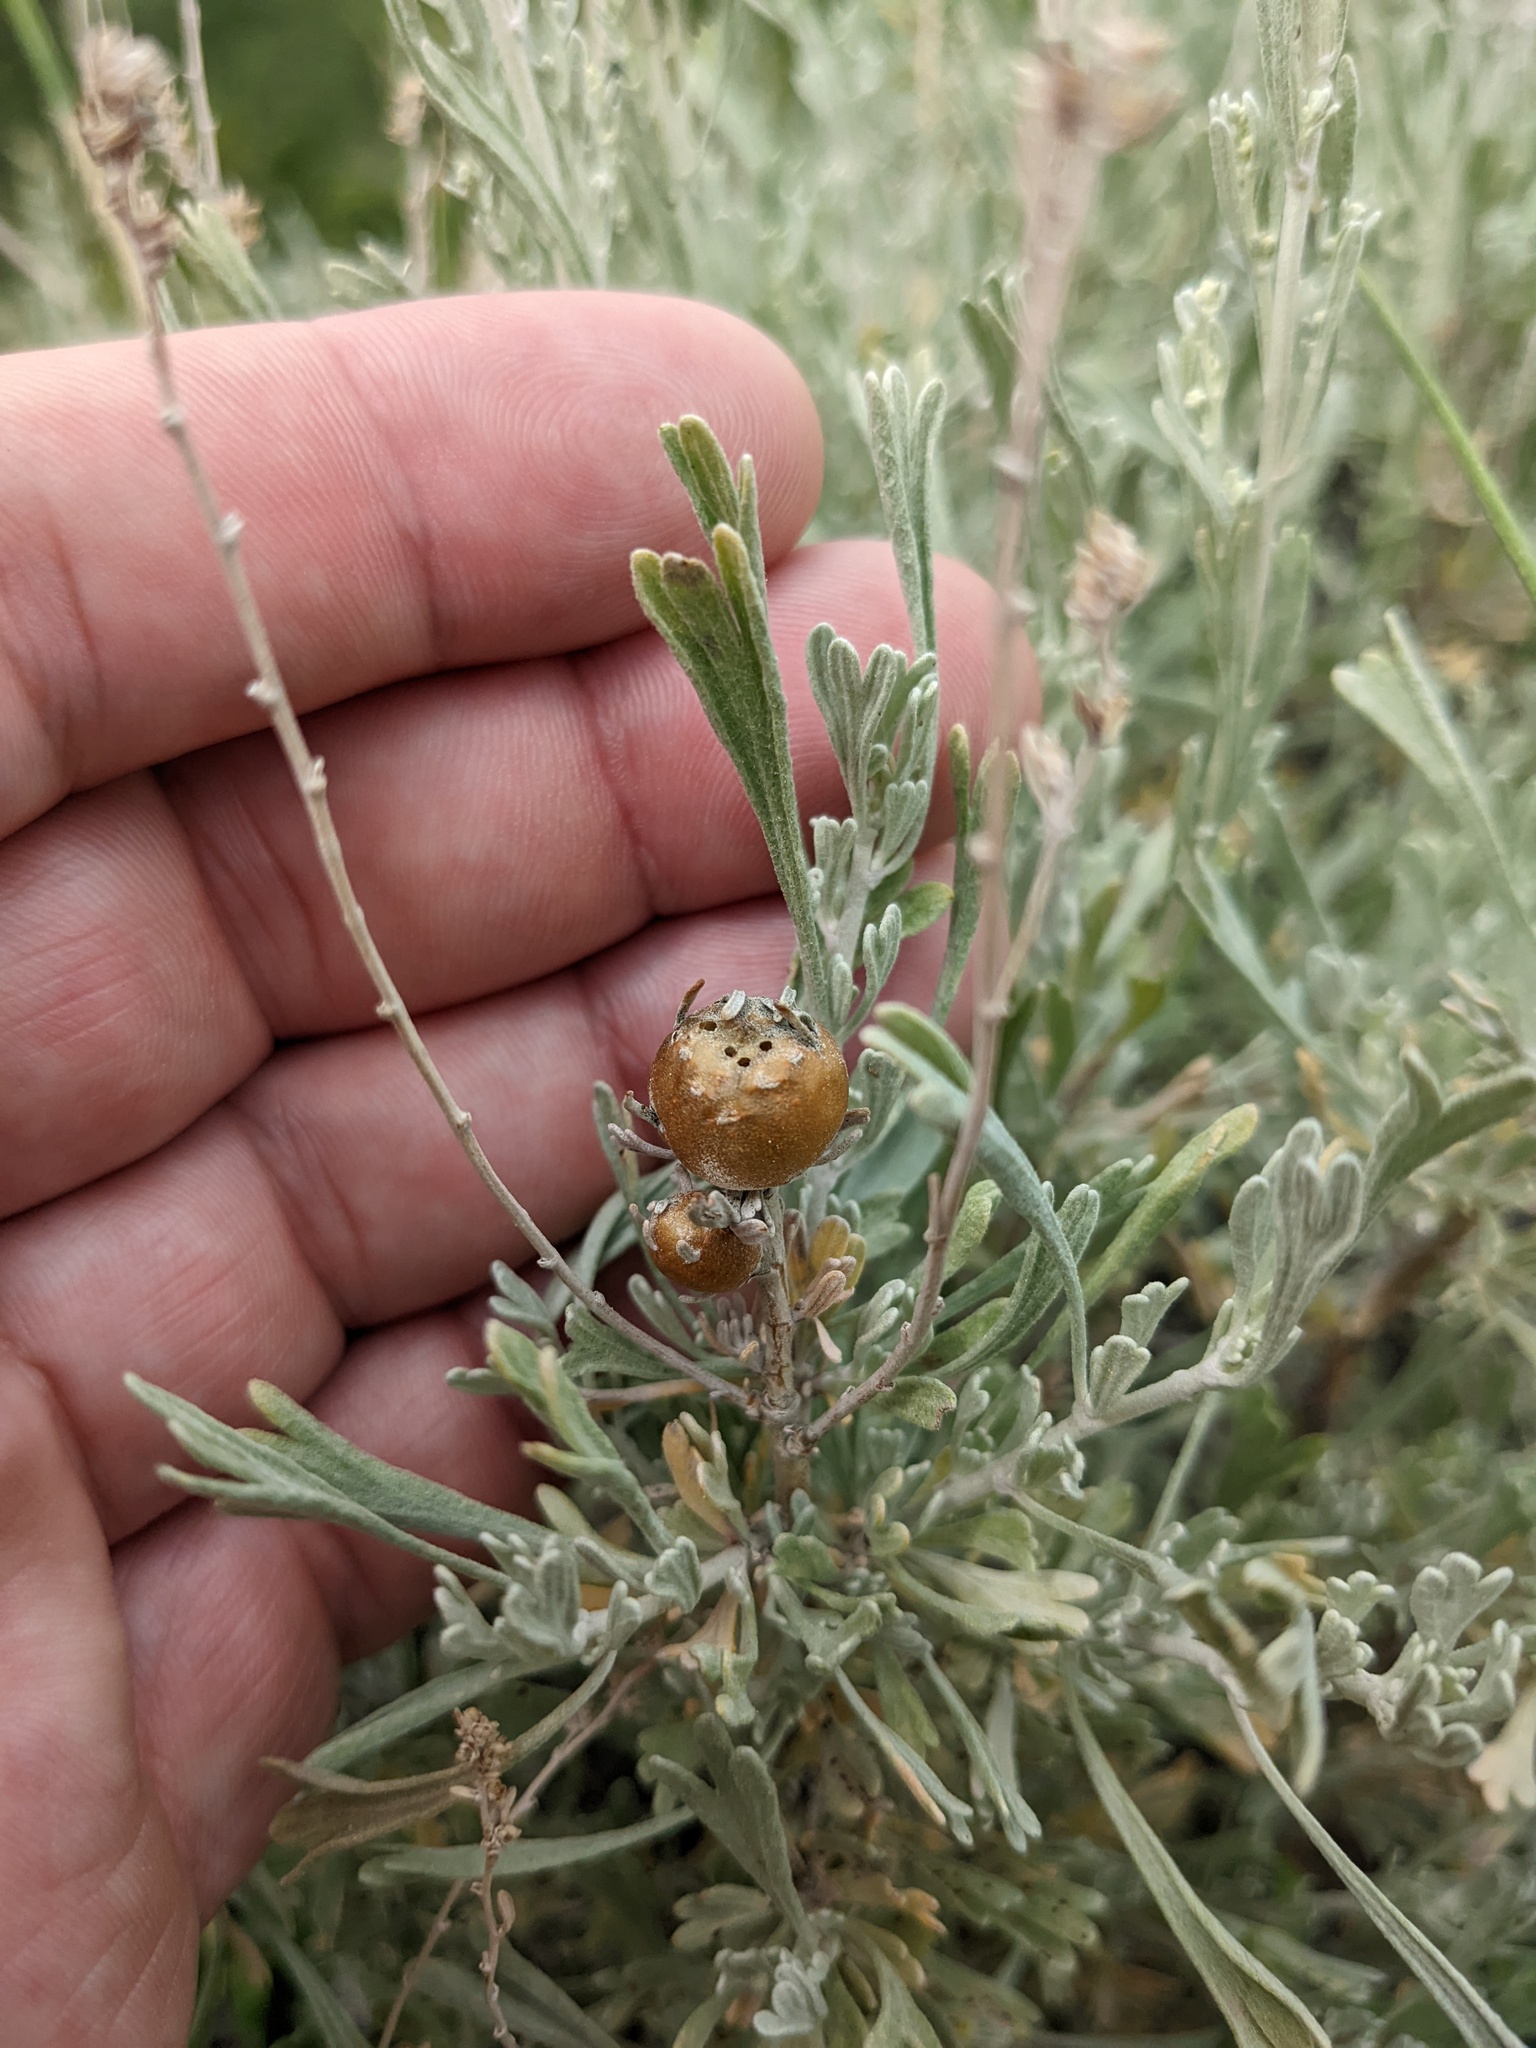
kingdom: Animalia
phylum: Arthropoda
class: Insecta
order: Diptera
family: Cecidomyiidae
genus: Rhopalomyia
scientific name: Rhopalomyia obovata
